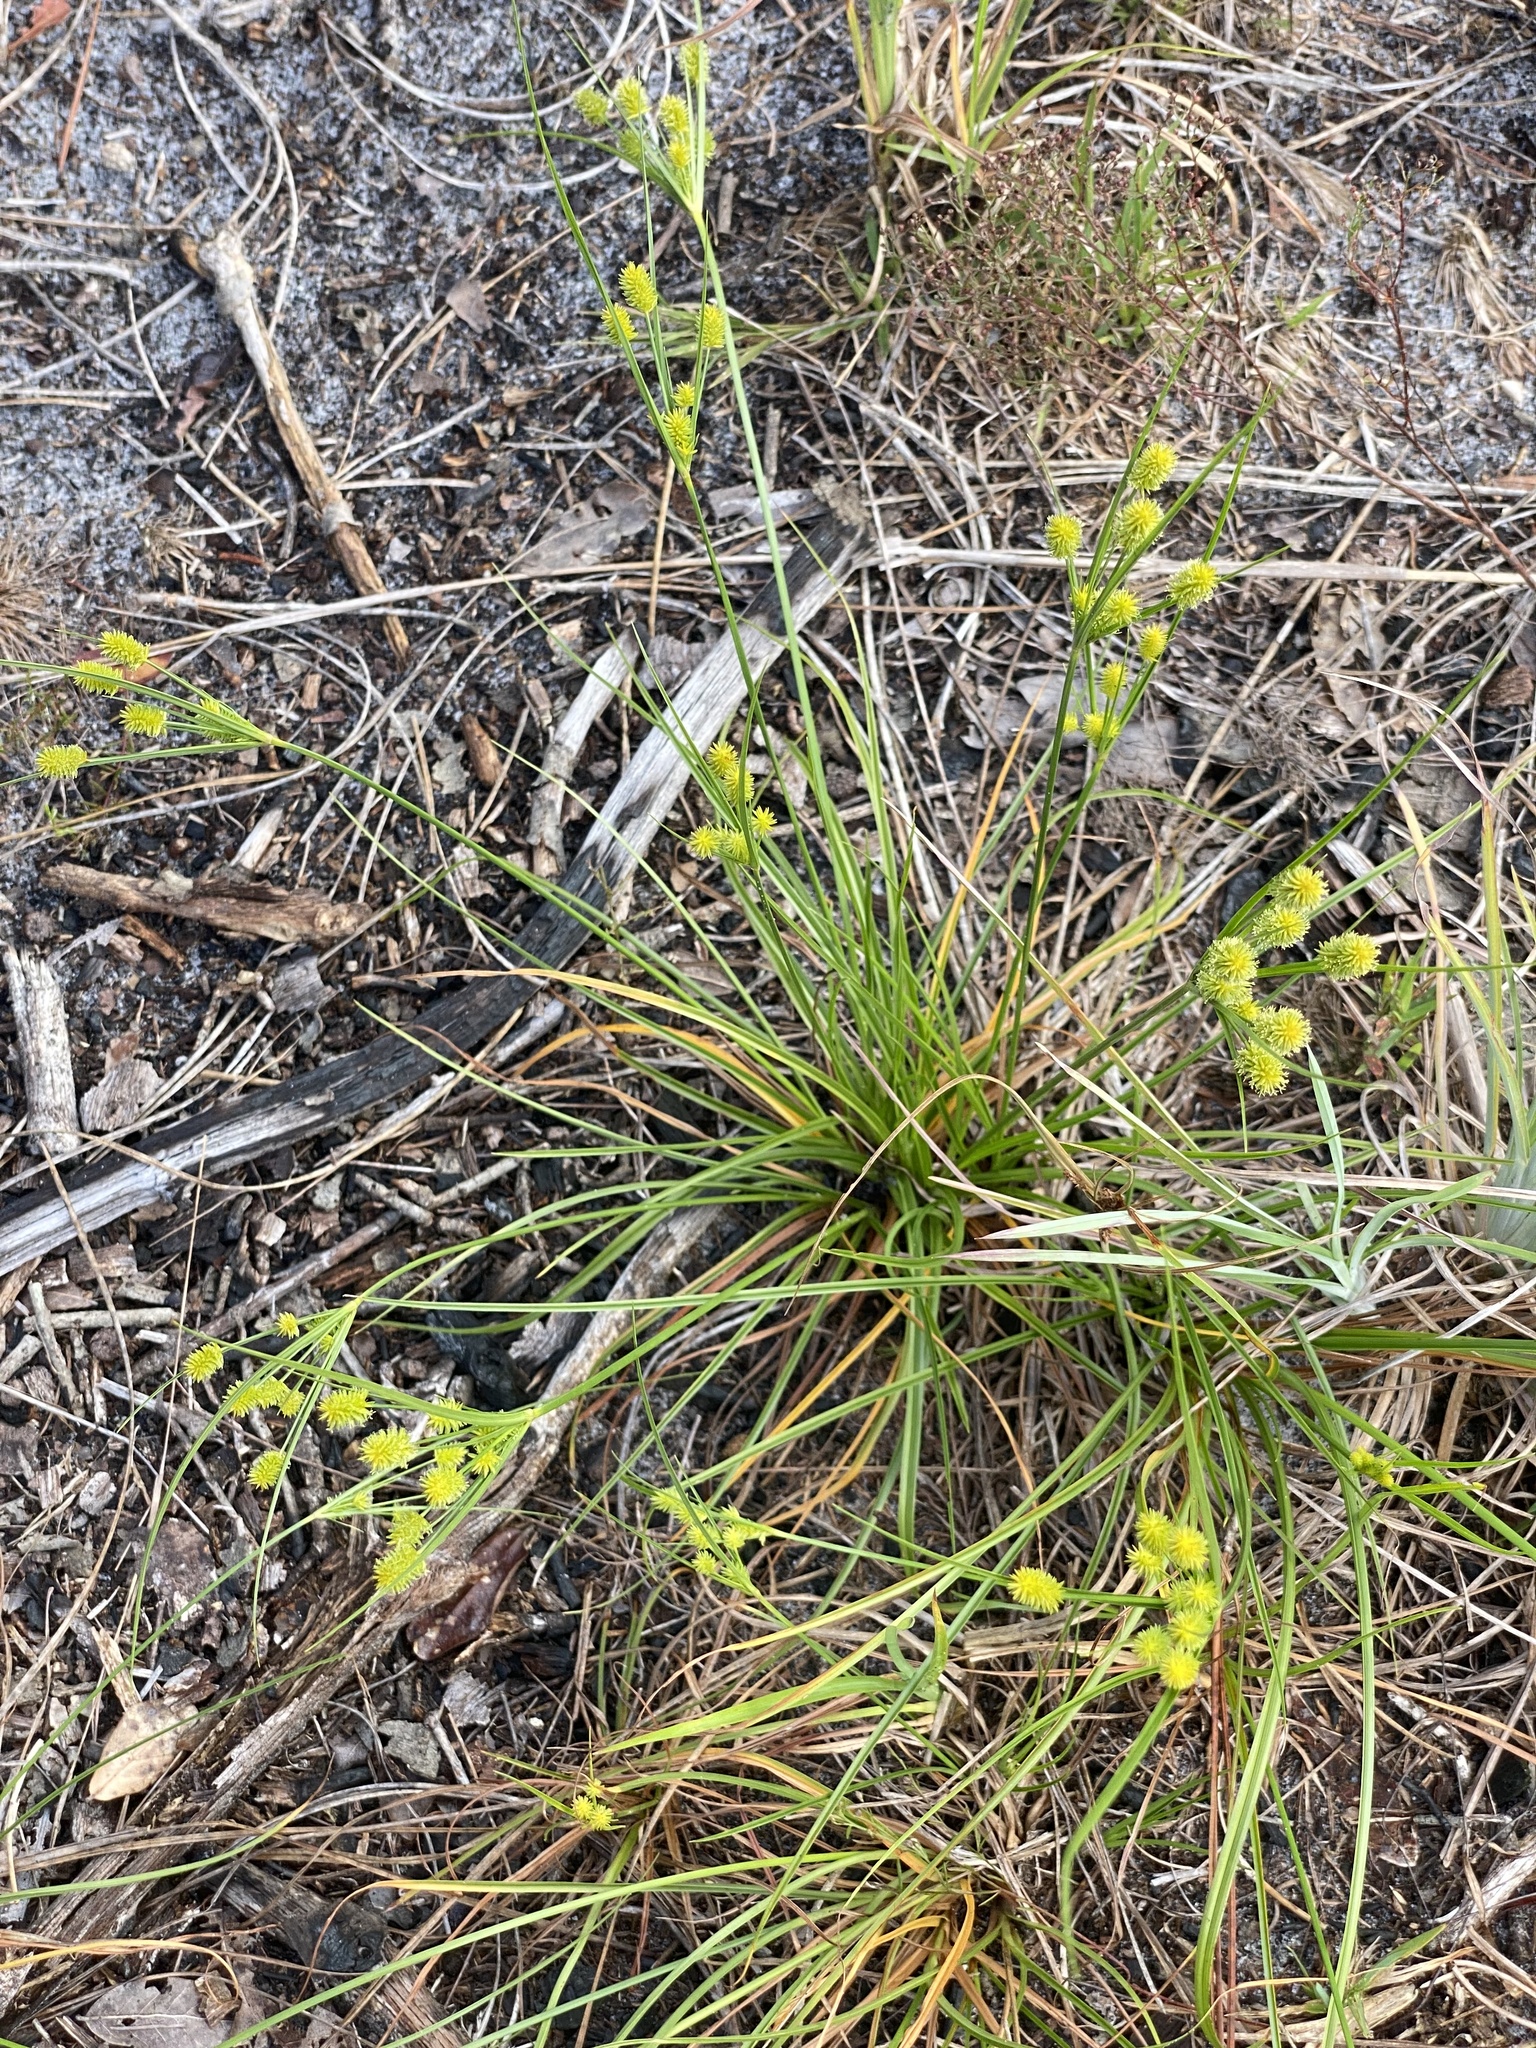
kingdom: Plantae
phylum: Tracheophyta
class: Liliopsida
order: Poales
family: Cyperaceae
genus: Cyperus
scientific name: Cyperus retrorsus
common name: Pinebarren flat sedge
